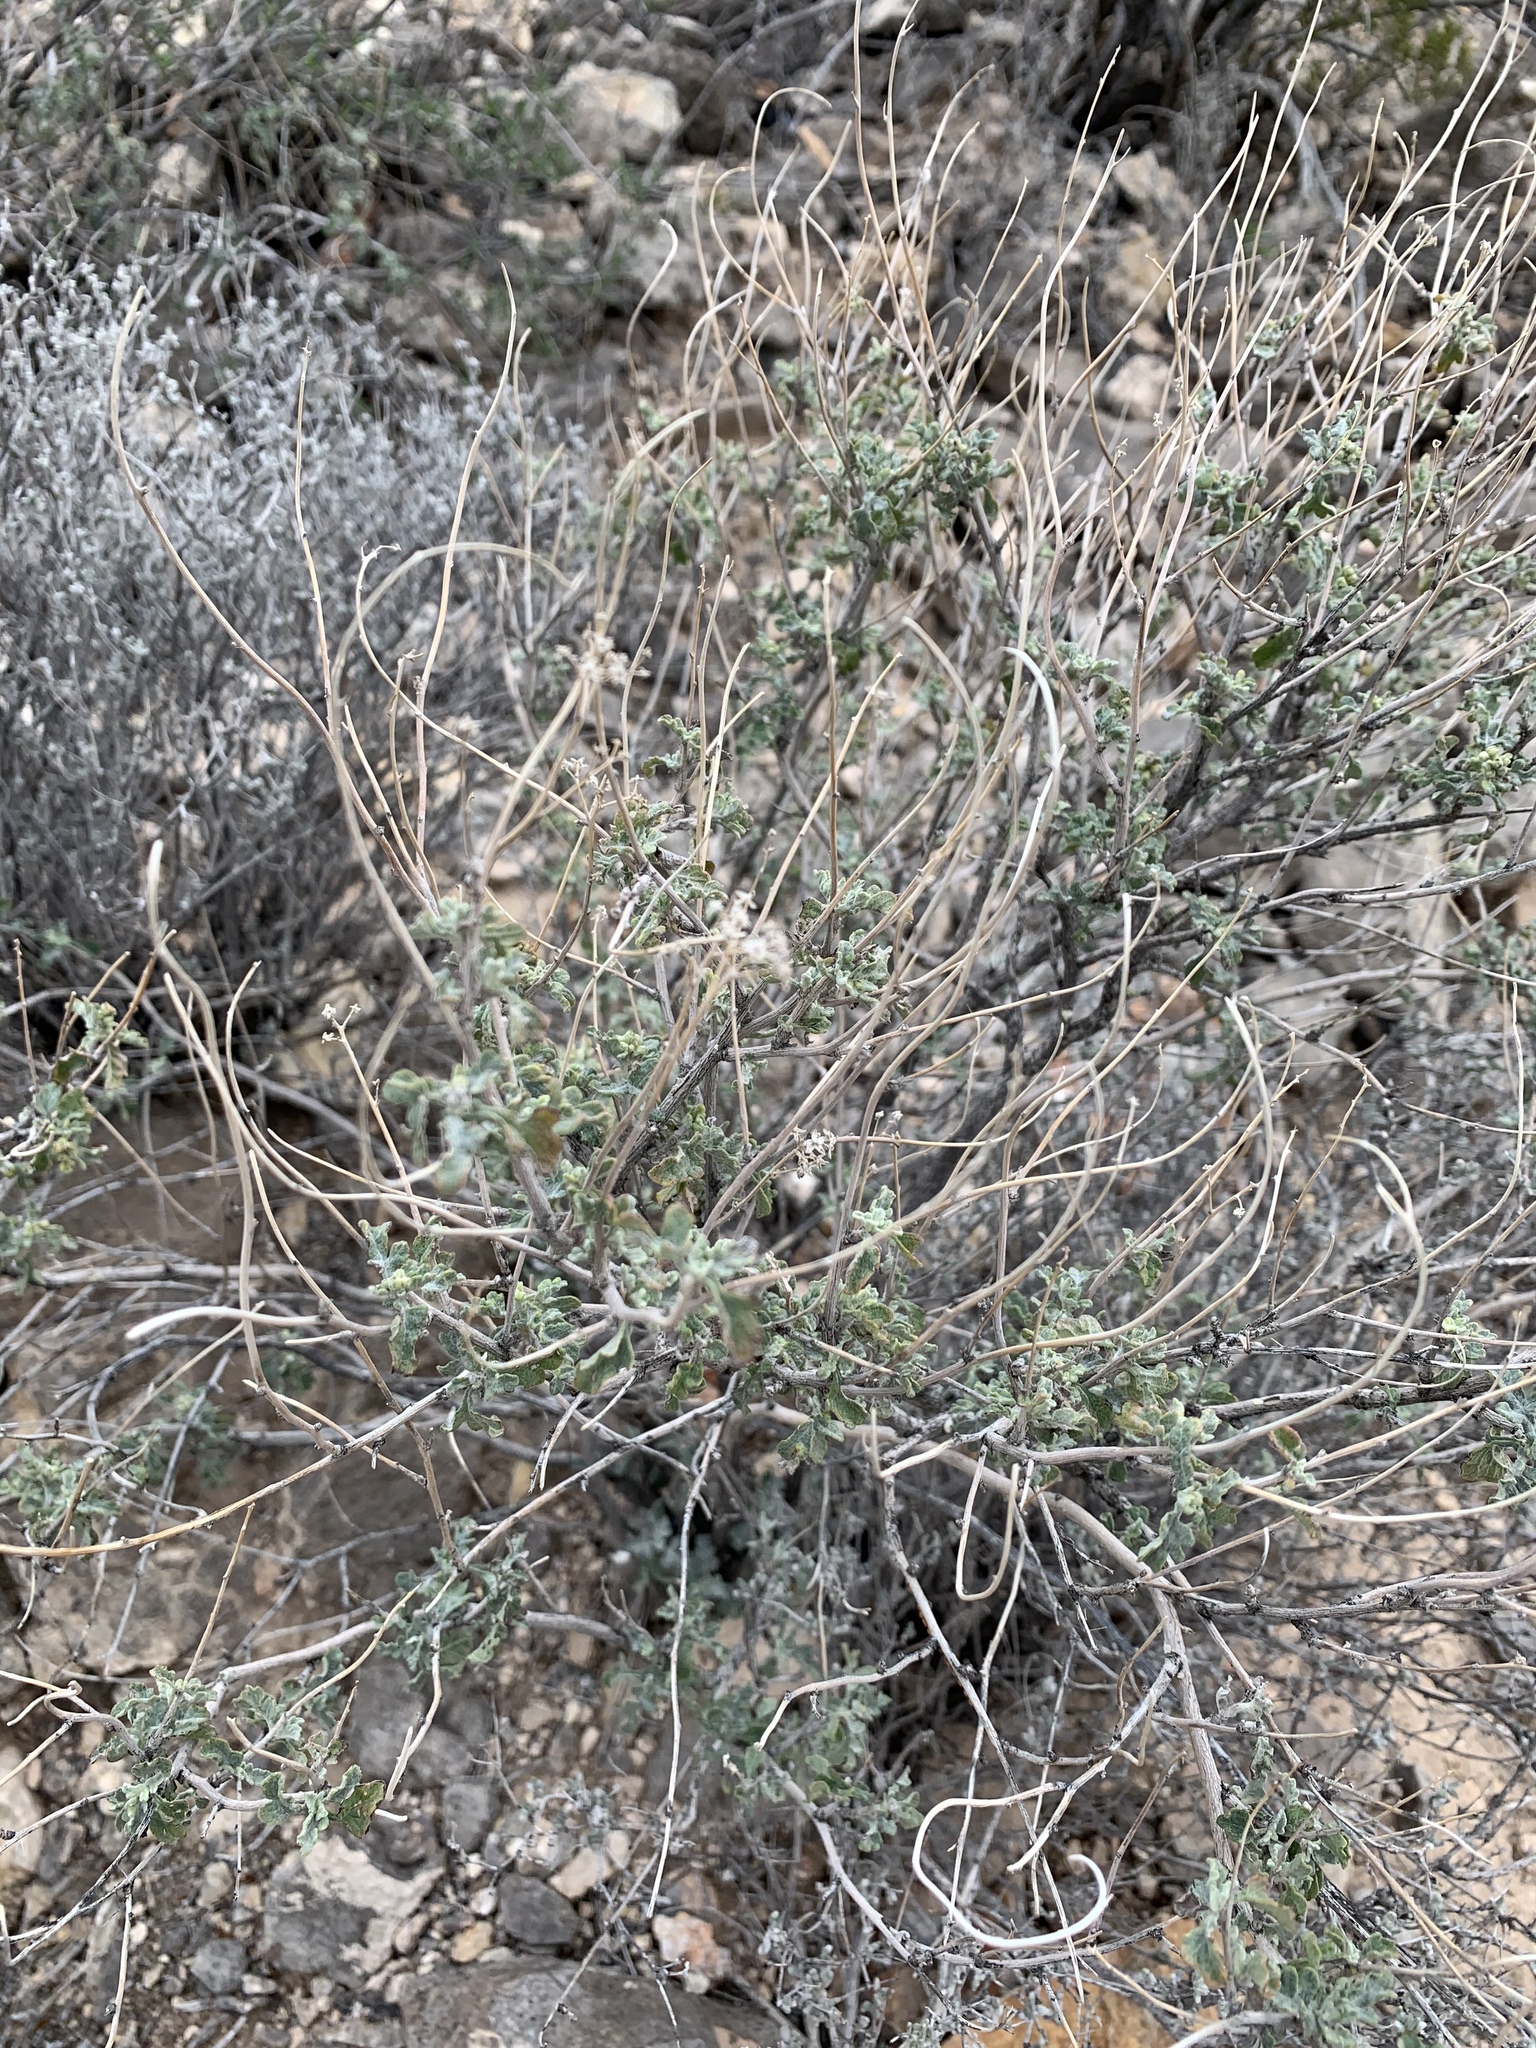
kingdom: Plantae
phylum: Tracheophyta
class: Magnoliopsida
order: Asterales
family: Asteraceae
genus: Parthenium
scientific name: Parthenium incanum
